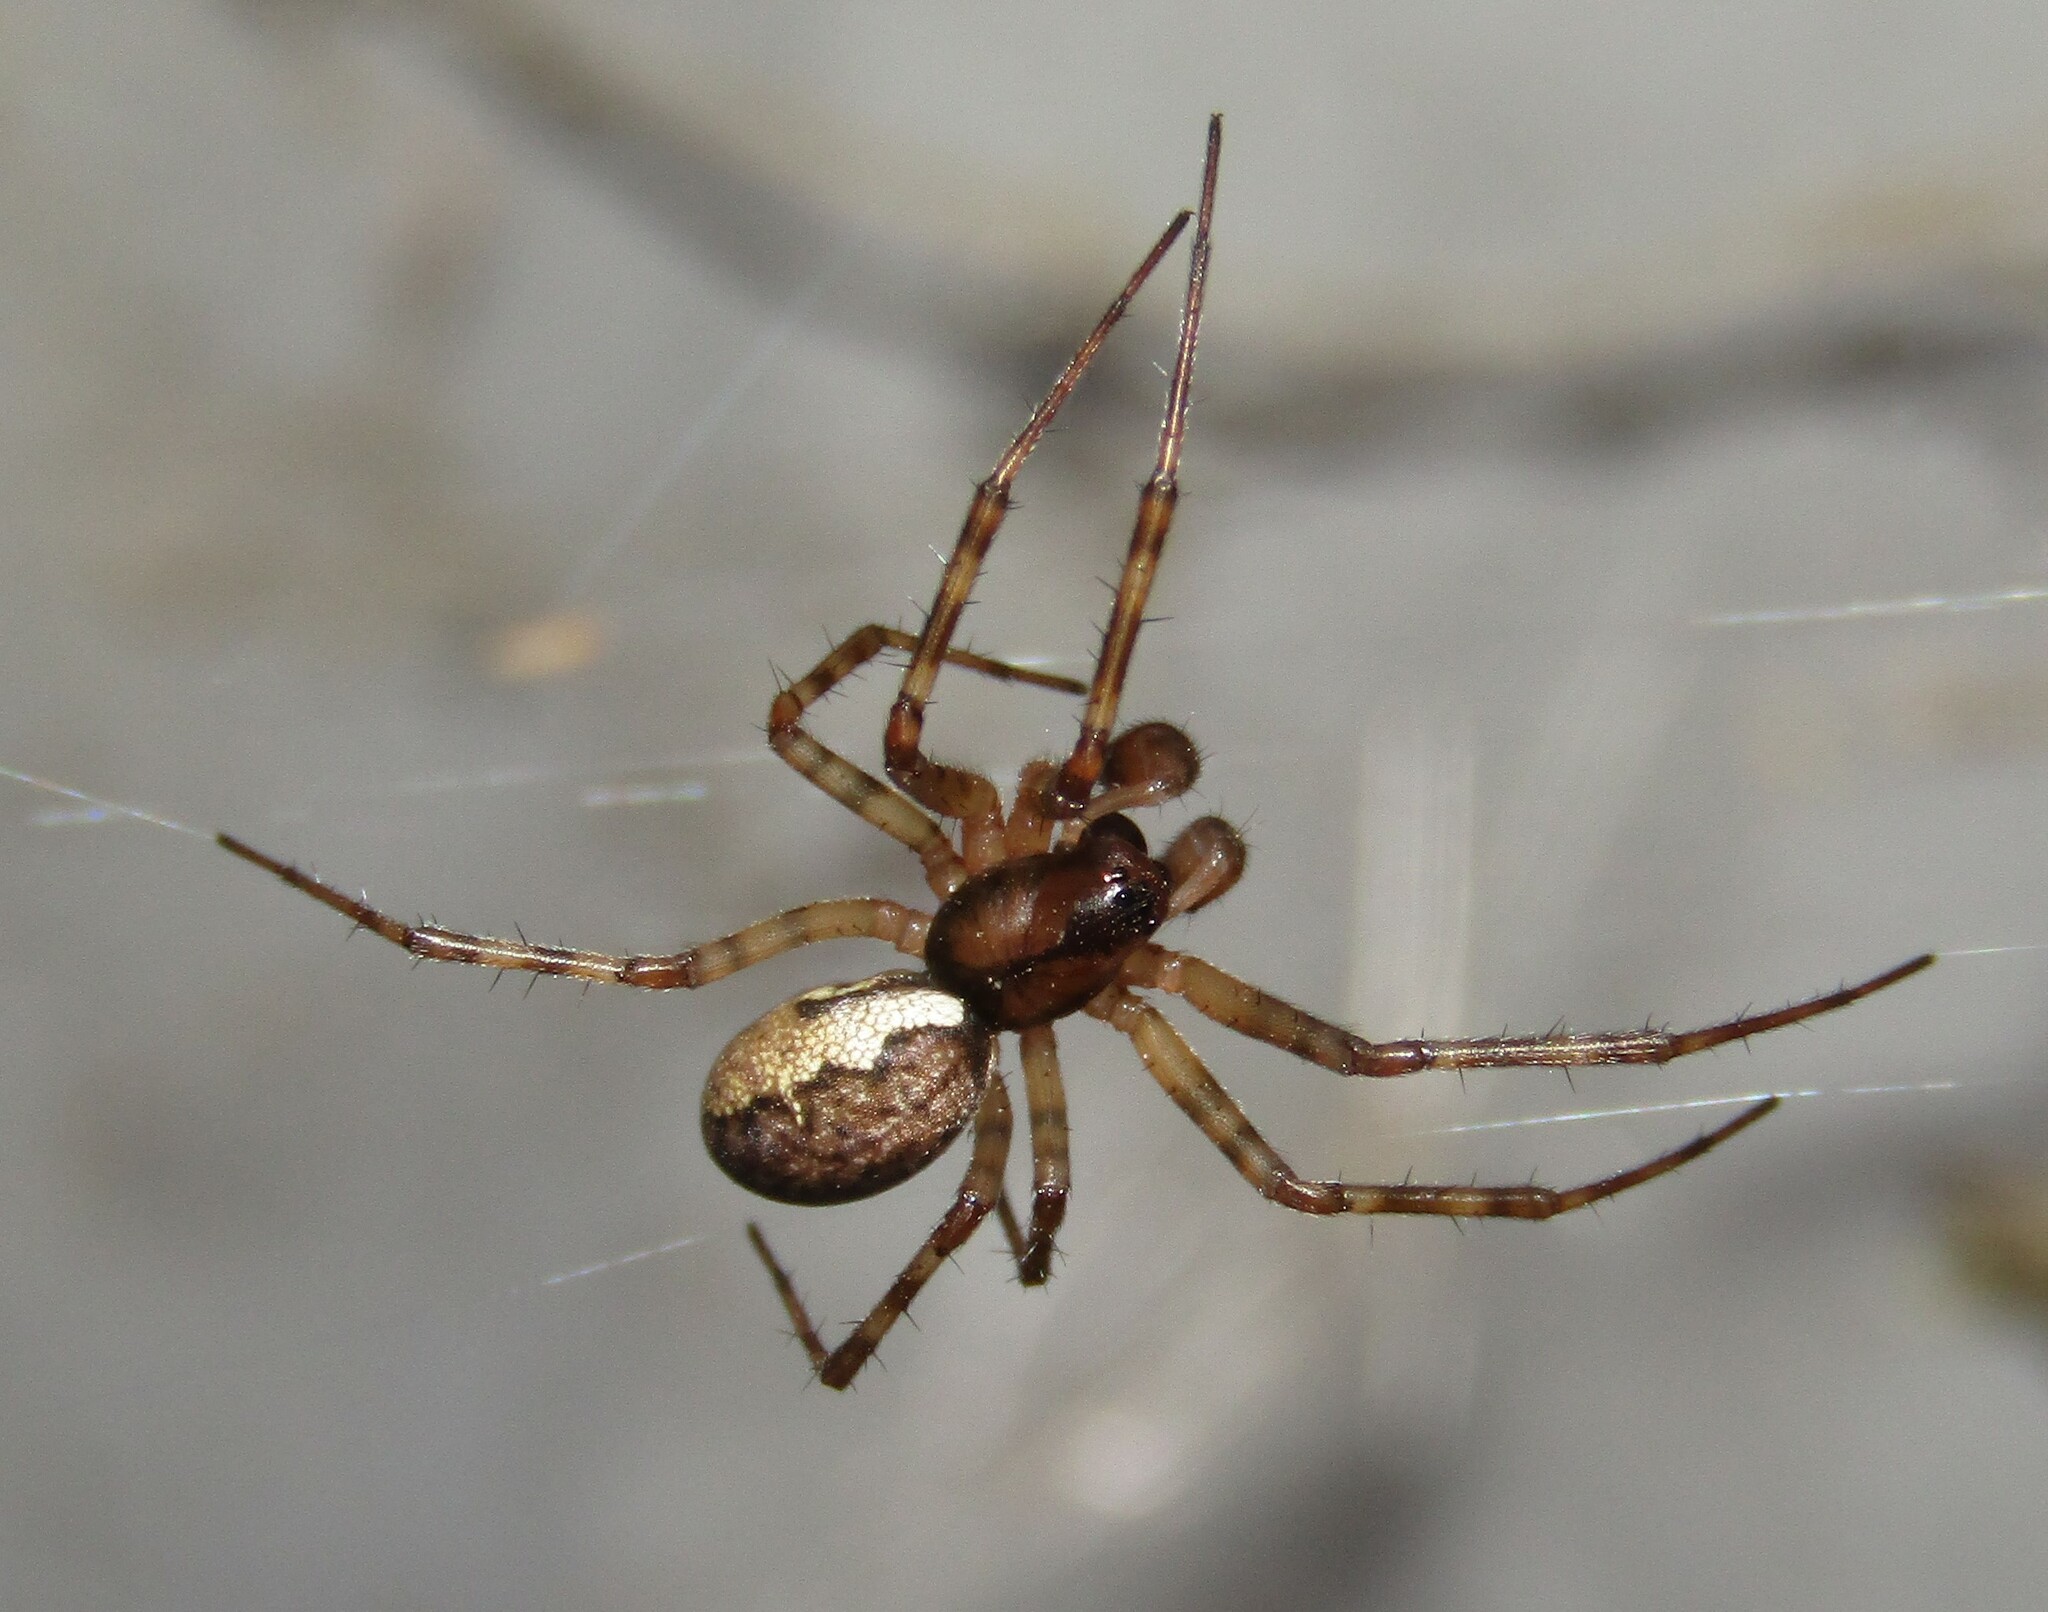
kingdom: Animalia
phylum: Arthropoda
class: Arachnida
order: Araneae
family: Linyphiidae
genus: Neriene
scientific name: Neriene montana
